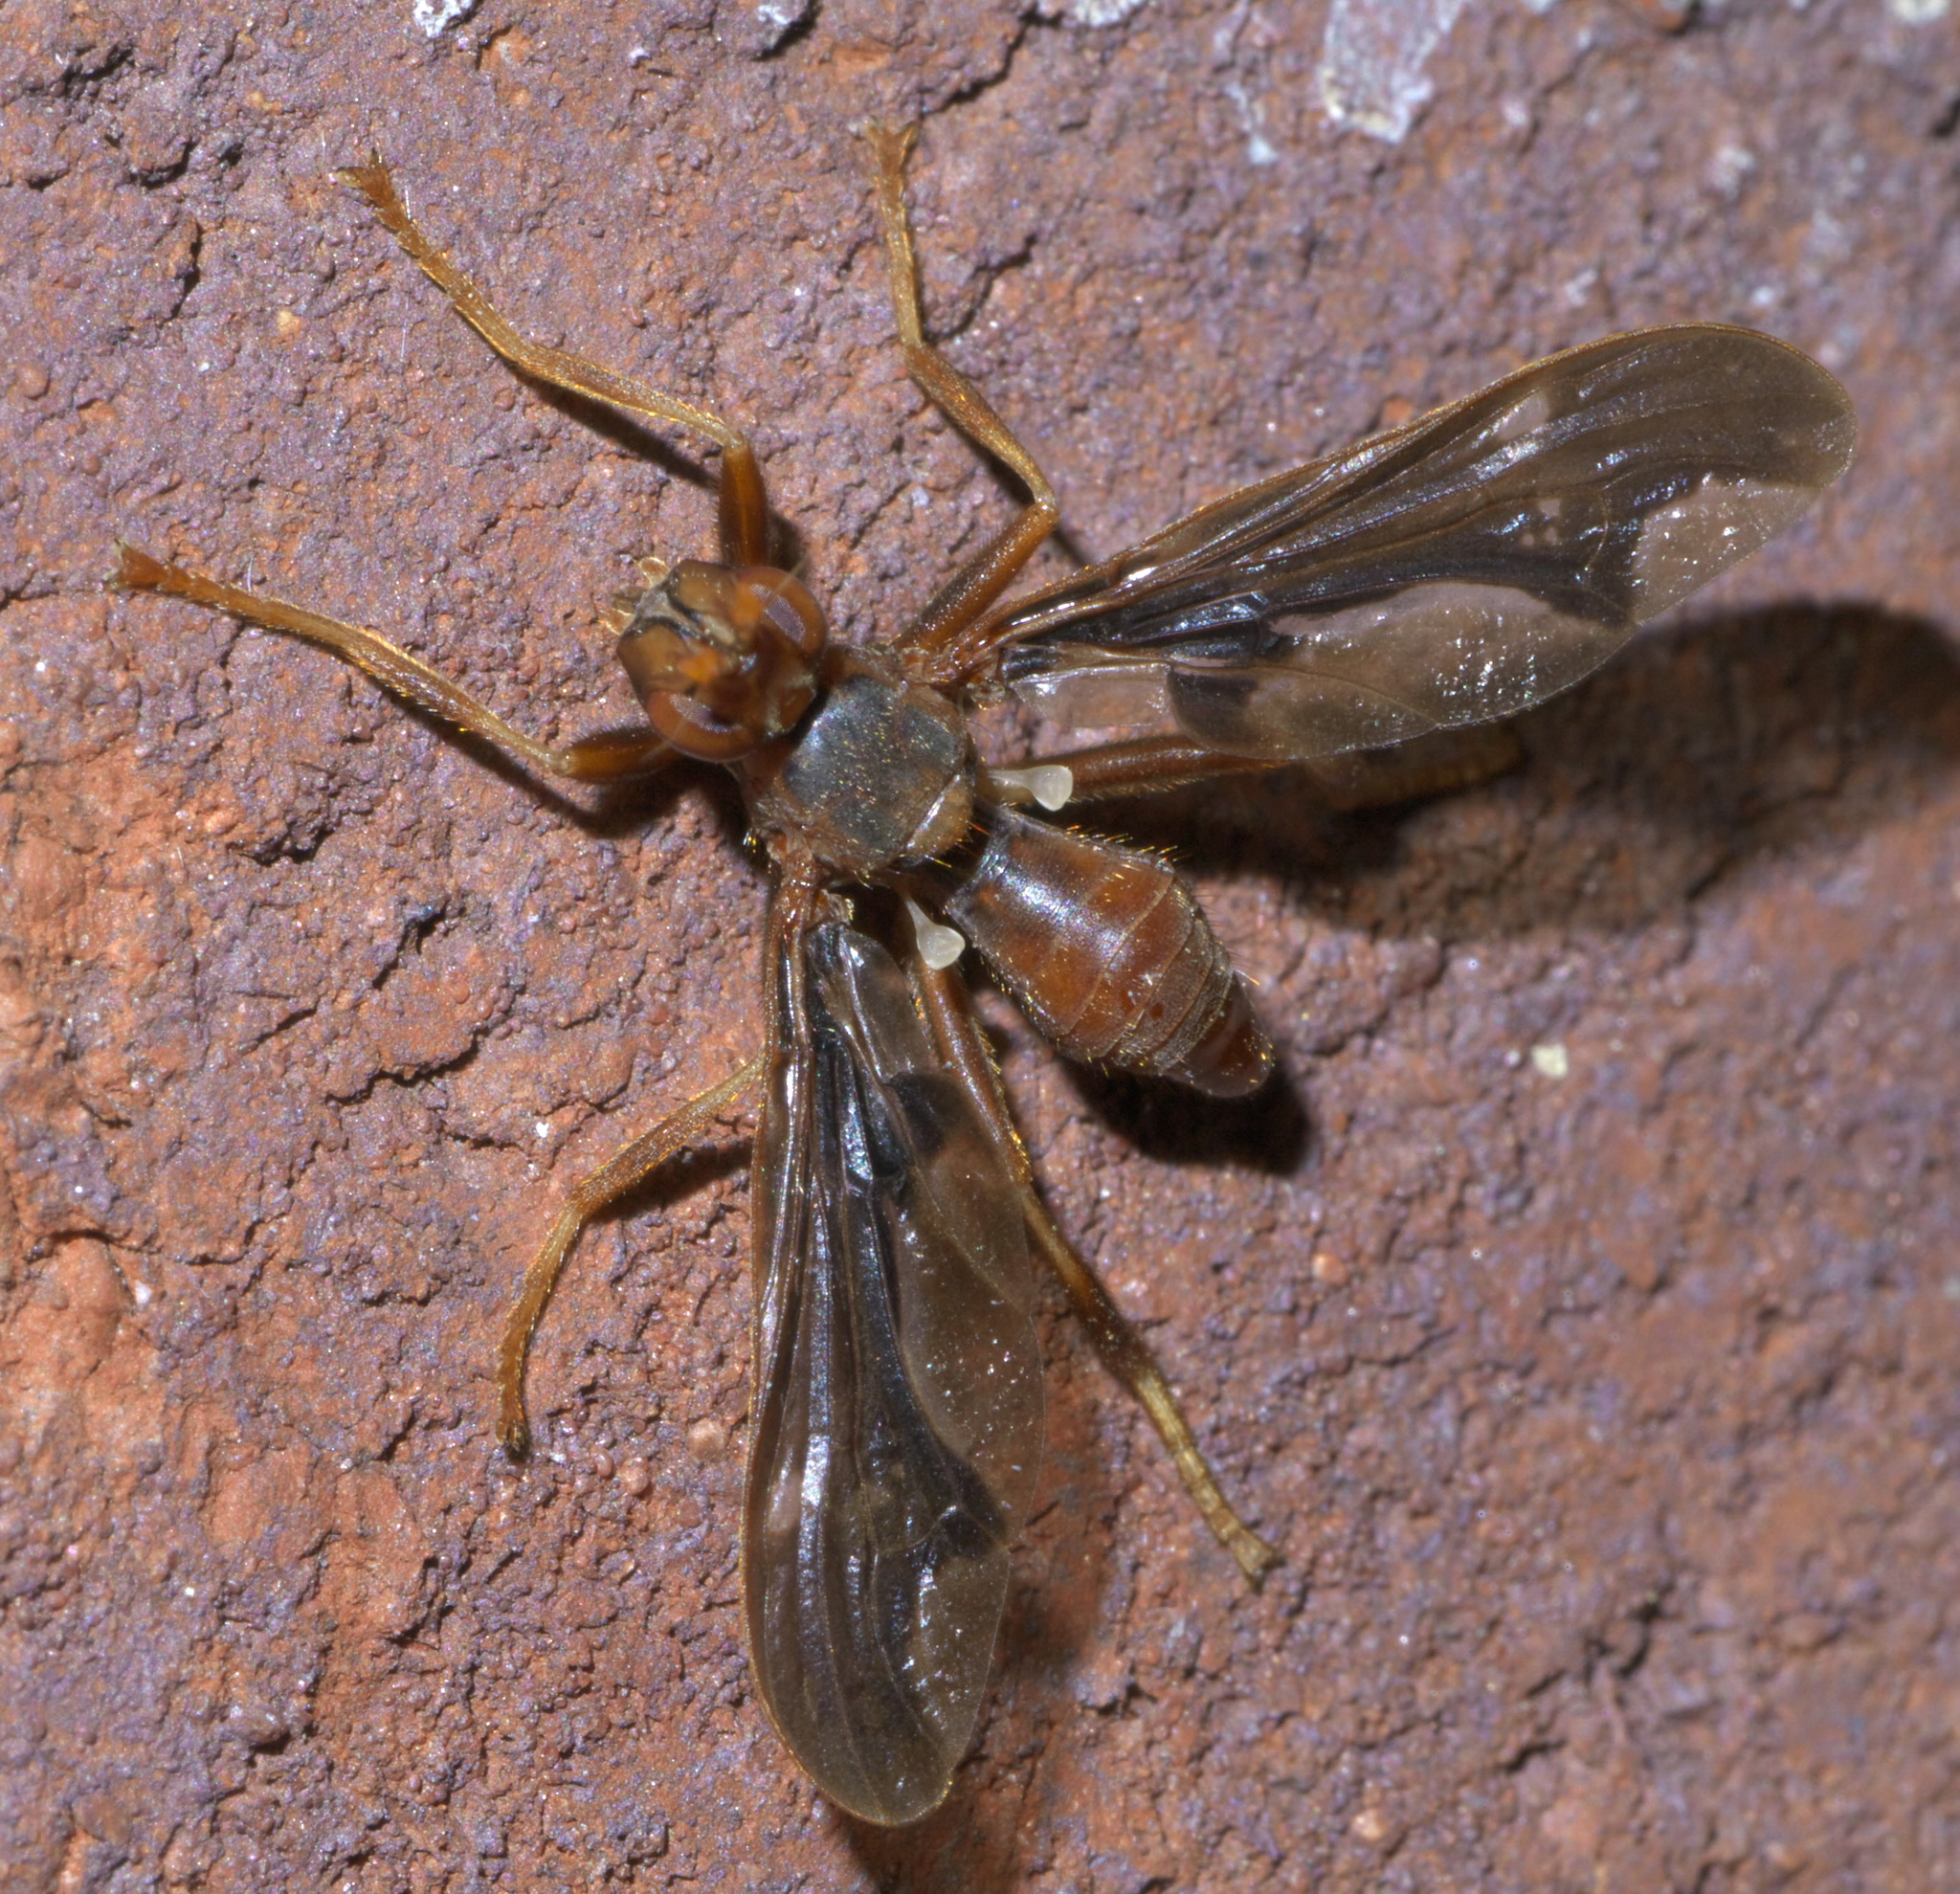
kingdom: Animalia
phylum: Arthropoda
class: Insecta
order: Diptera
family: Pyrgotidae
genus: Pyrgota
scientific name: Pyrgota undata
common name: Waved light fly
